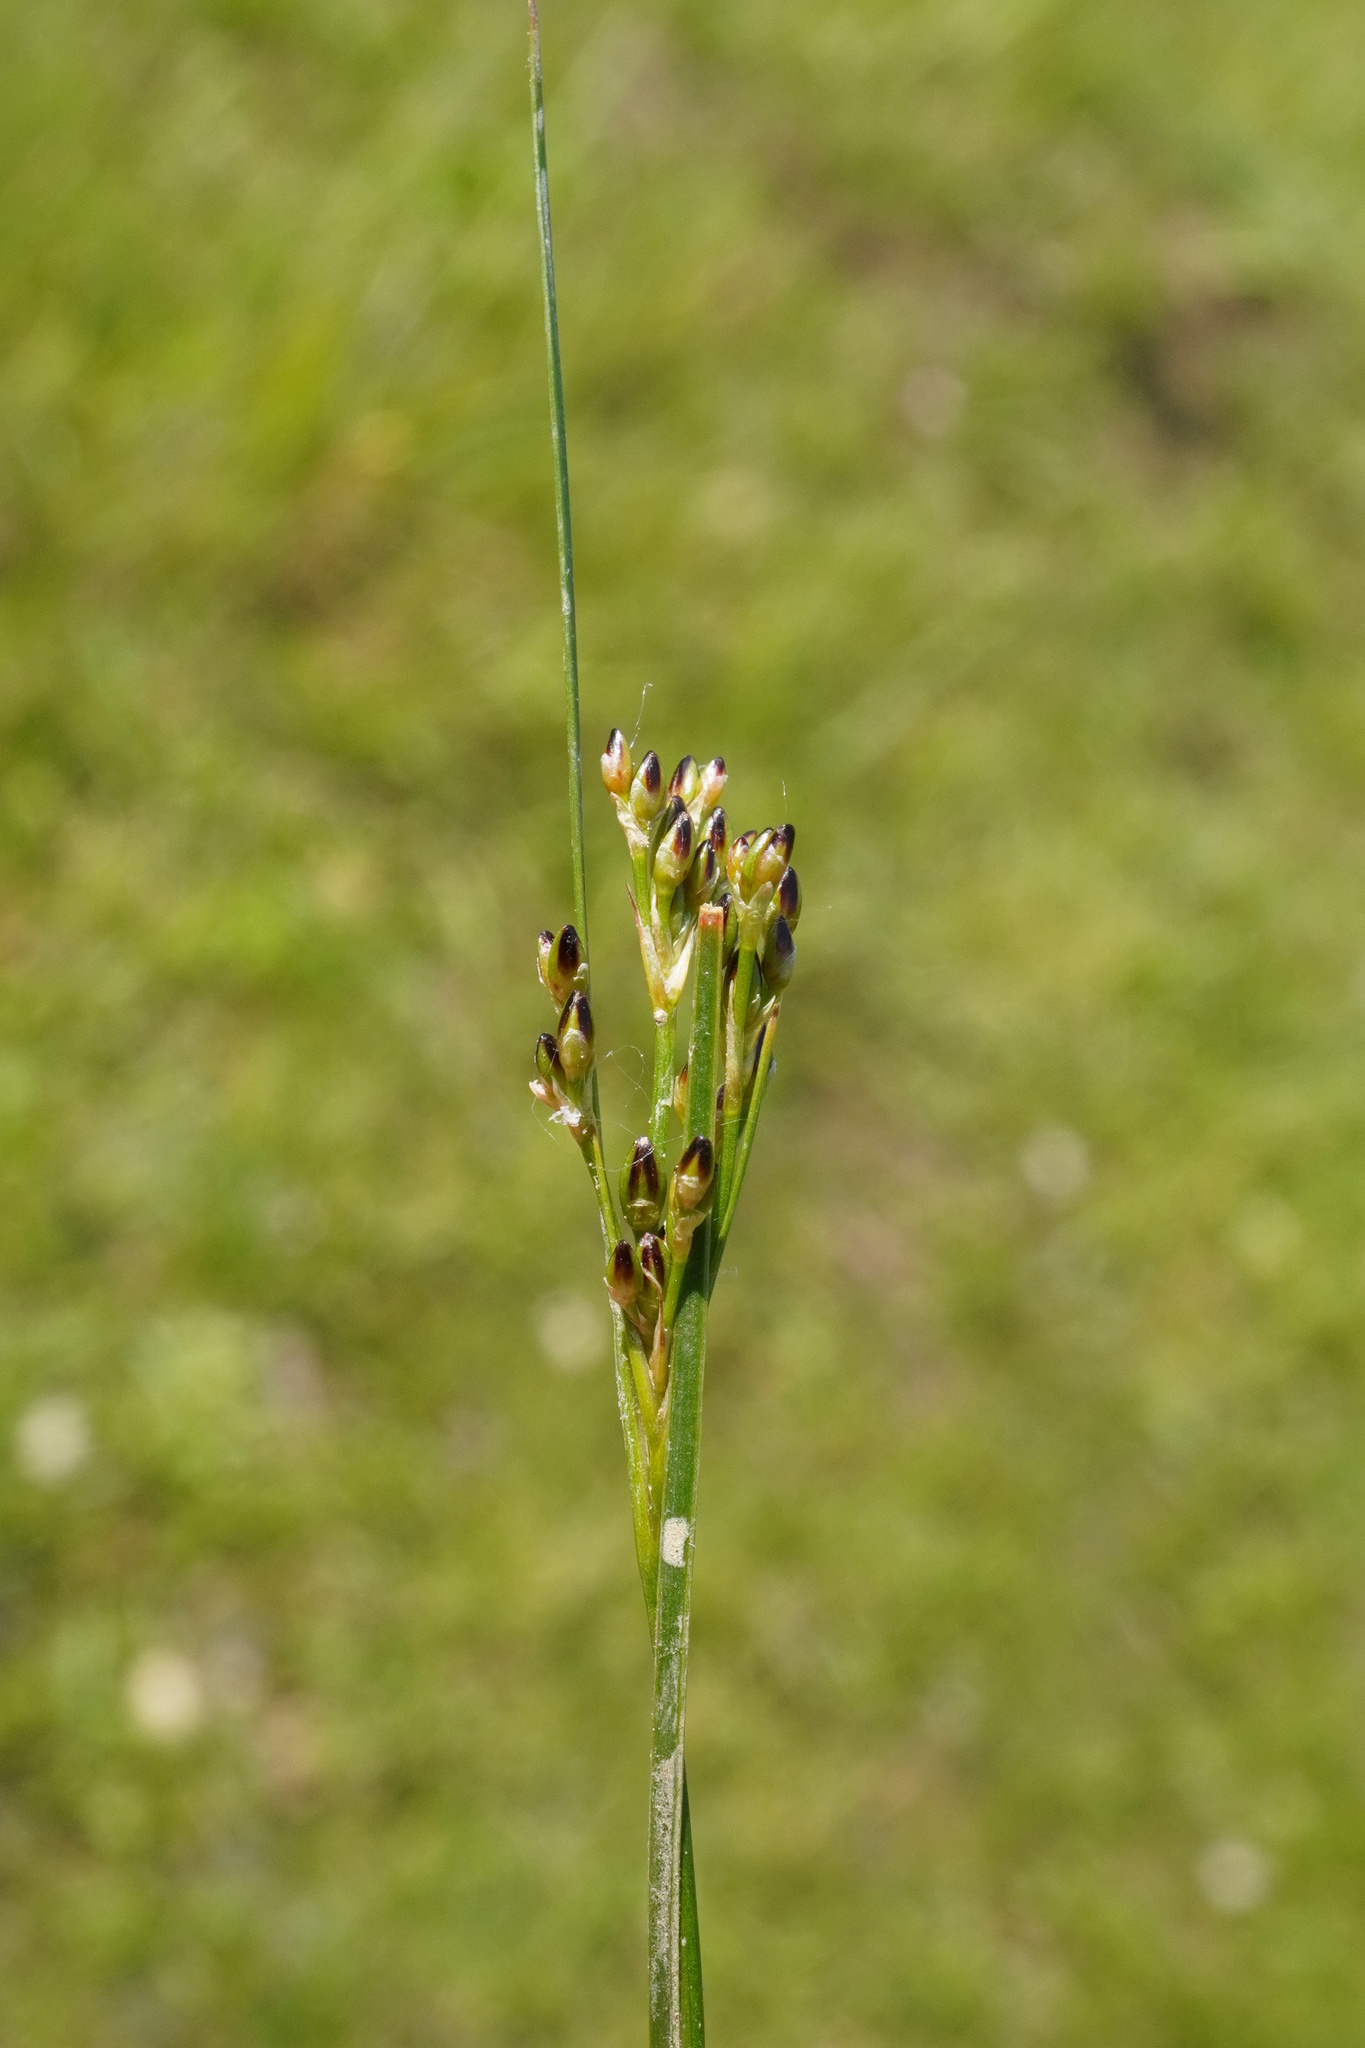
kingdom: Plantae
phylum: Tracheophyta
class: Liliopsida
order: Poales
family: Juncaceae
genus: Juncus
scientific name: Juncus gerardi
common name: Saltmarsh rush
